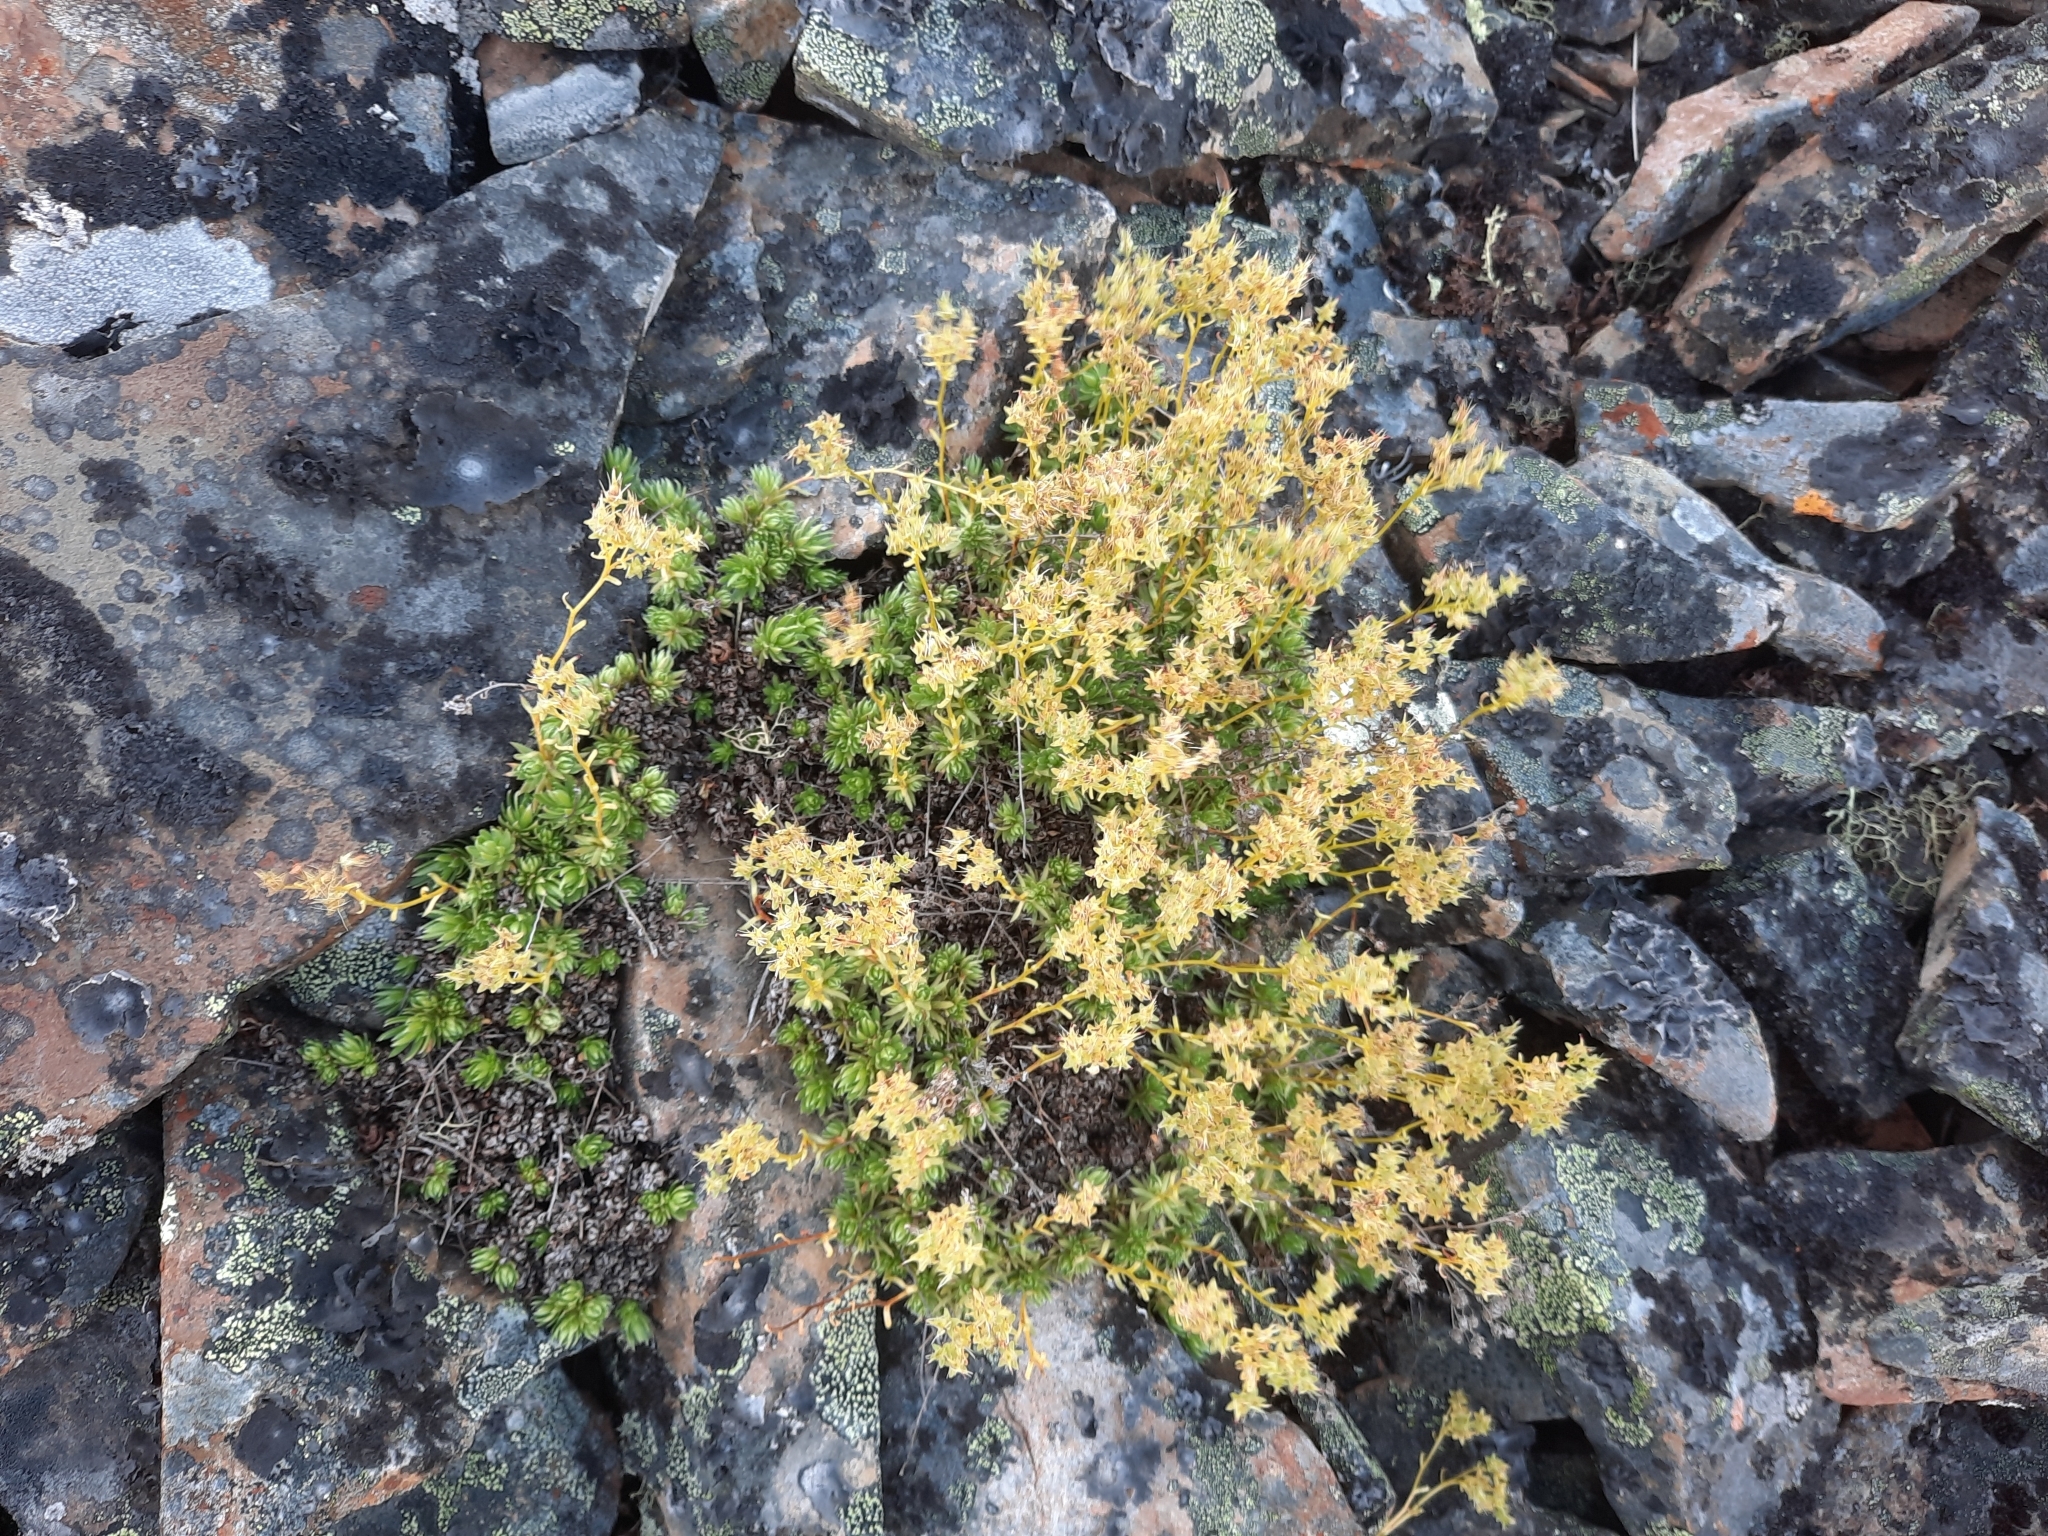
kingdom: Plantae
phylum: Tracheophyta
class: Magnoliopsida
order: Saxifragales
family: Saxifragaceae
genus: Saxifraga
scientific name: Saxifraga bronchialis
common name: Matted saxifrage
